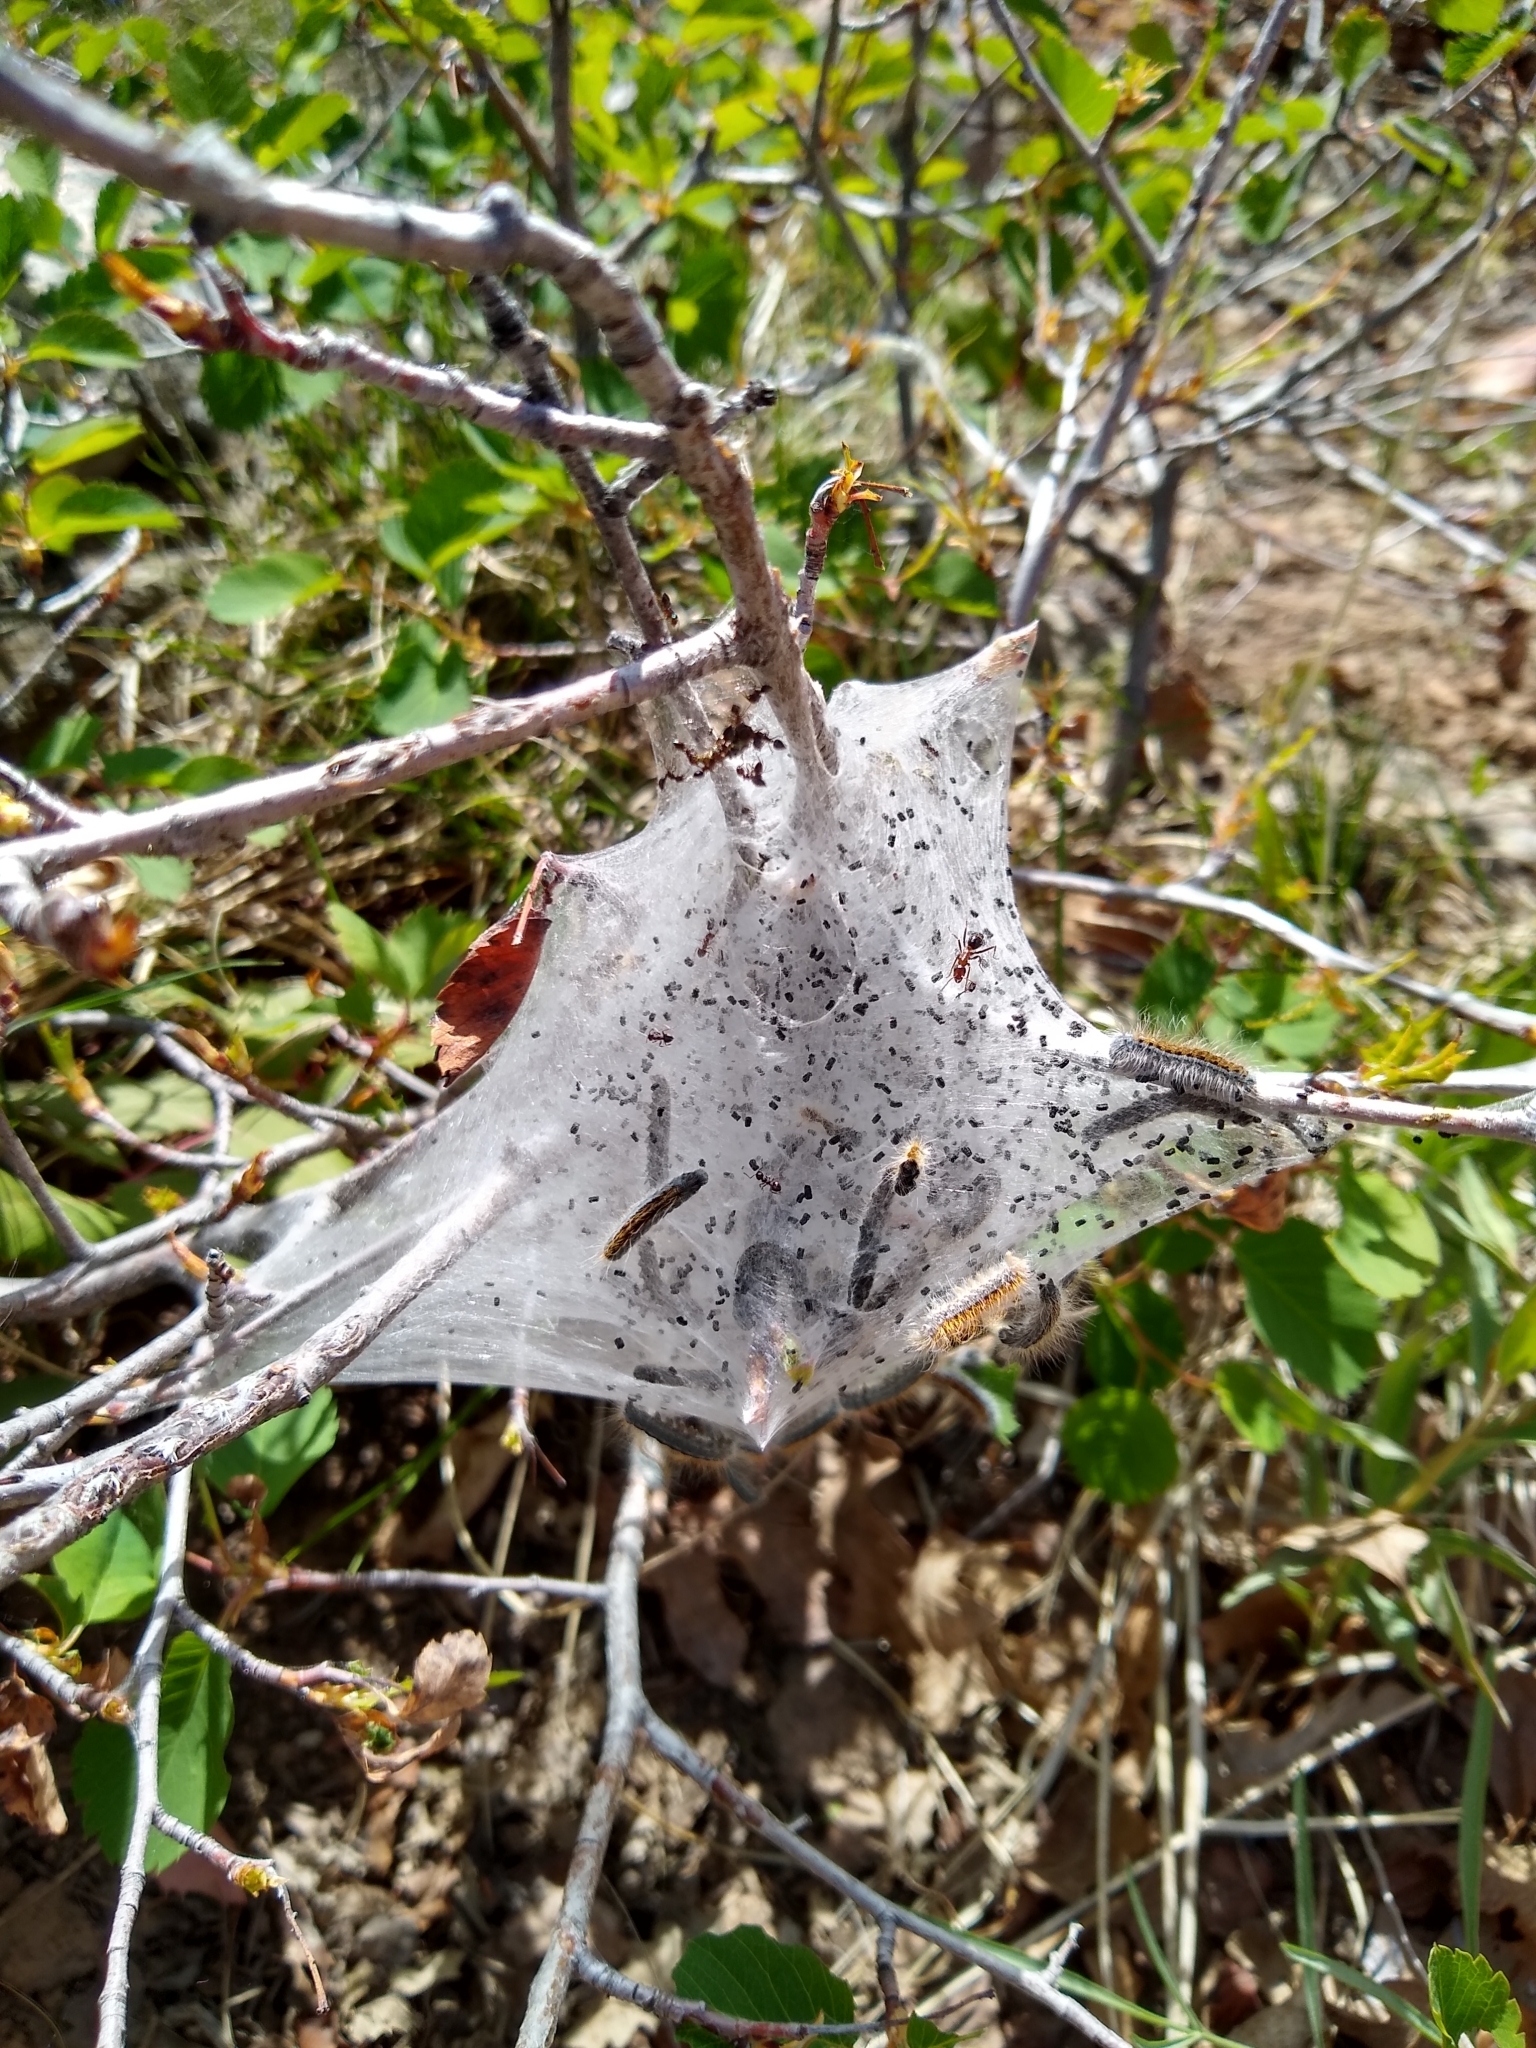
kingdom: Animalia
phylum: Arthropoda
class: Insecta
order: Lepidoptera
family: Lasiocampidae
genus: Malacosoma
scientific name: Malacosoma californica
